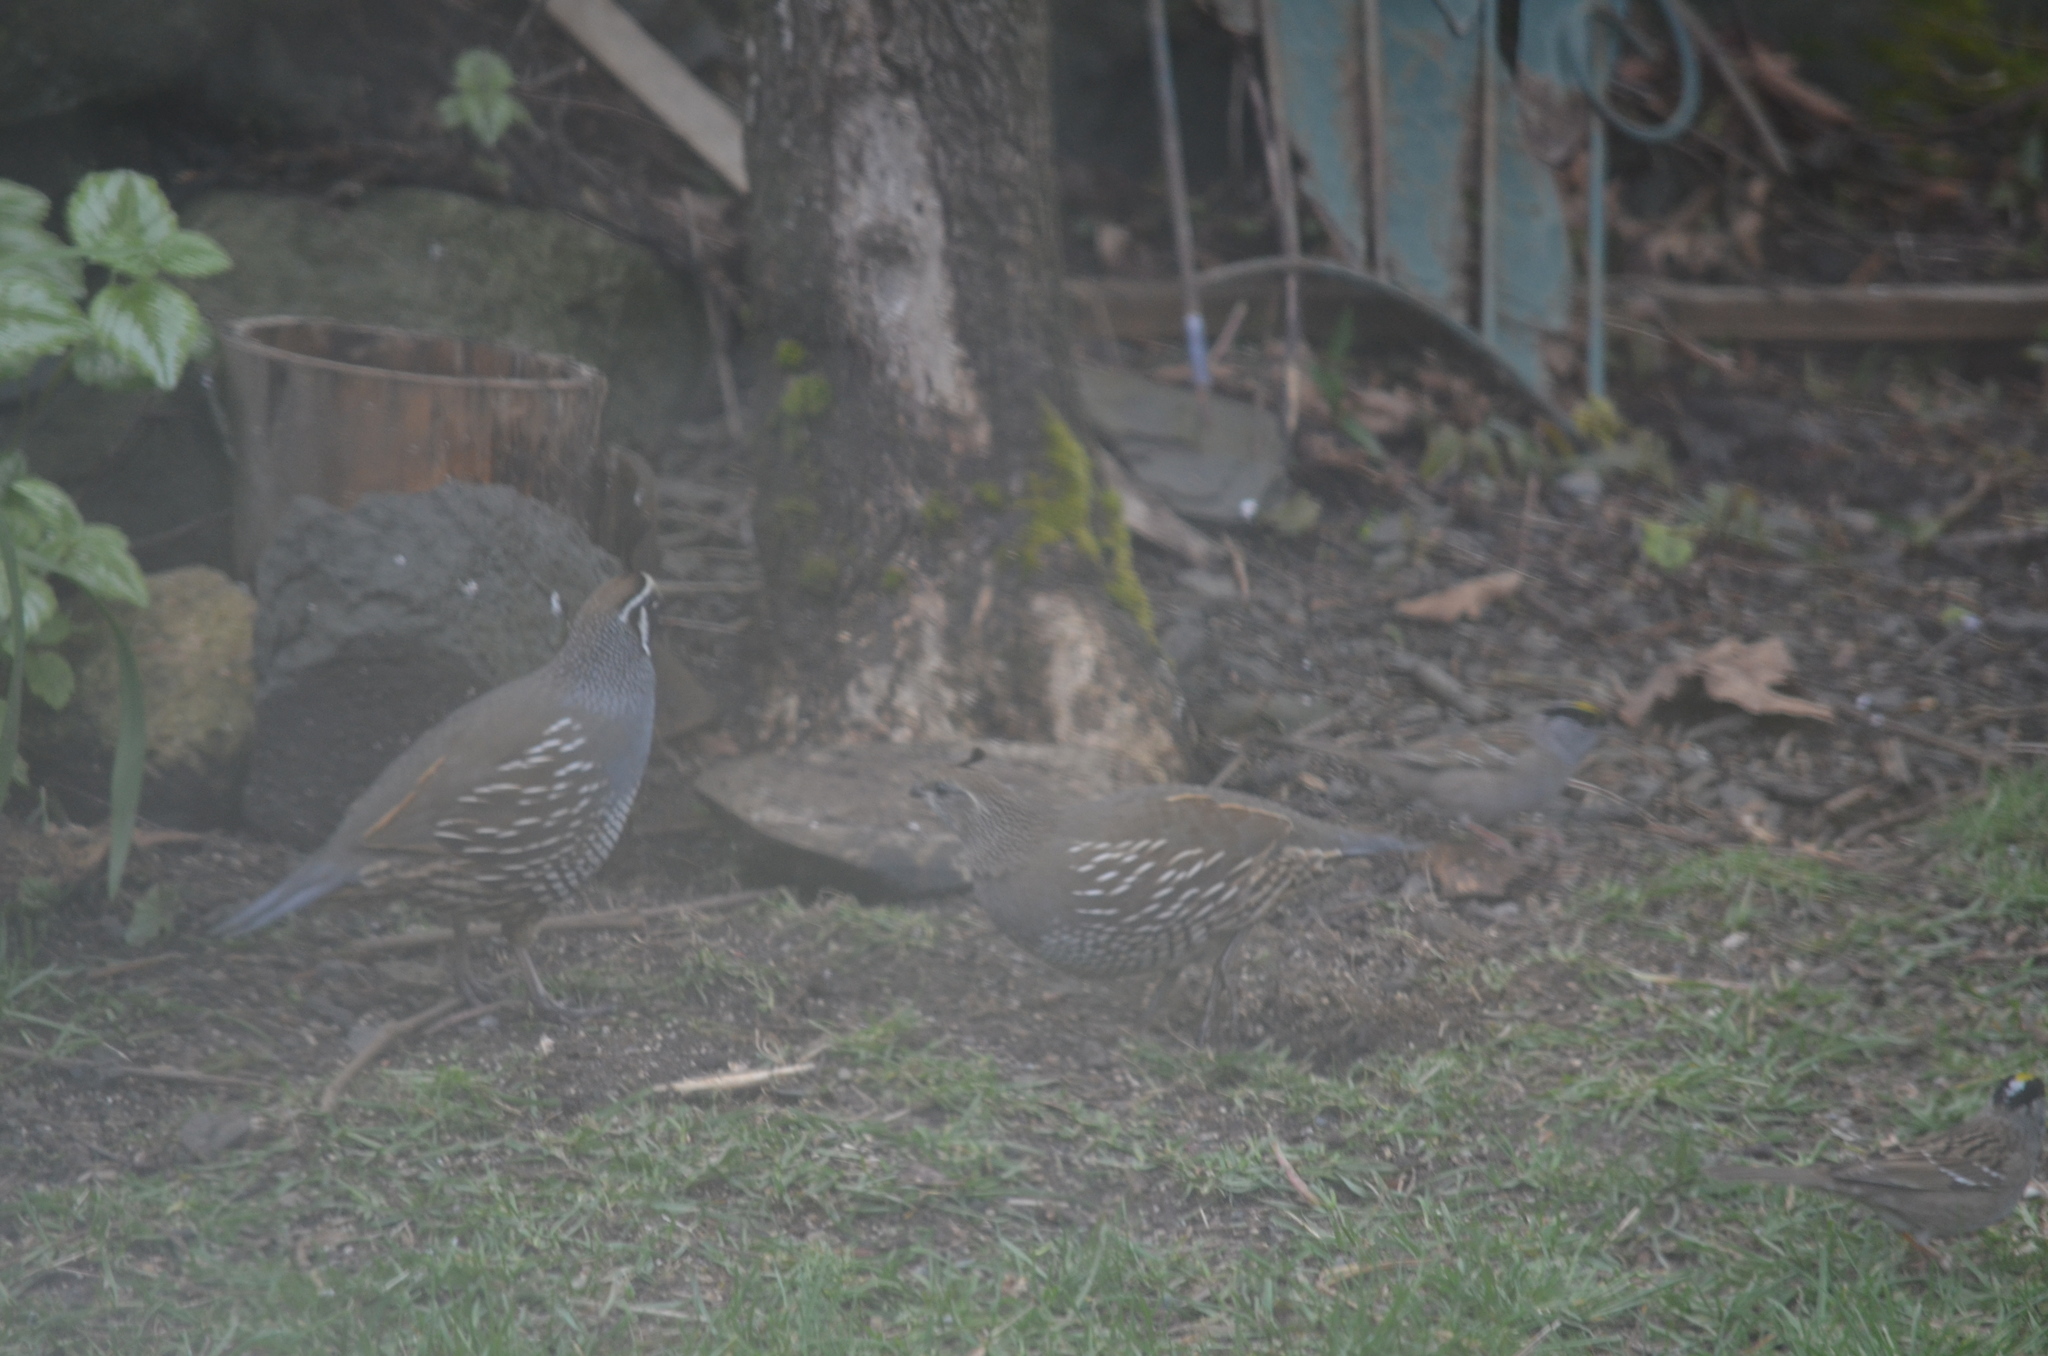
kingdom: Animalia
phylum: Chordata
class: Aves
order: Galliformes
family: Odontophoridae
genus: Callipepla
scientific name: Callipepla californica
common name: California quail
